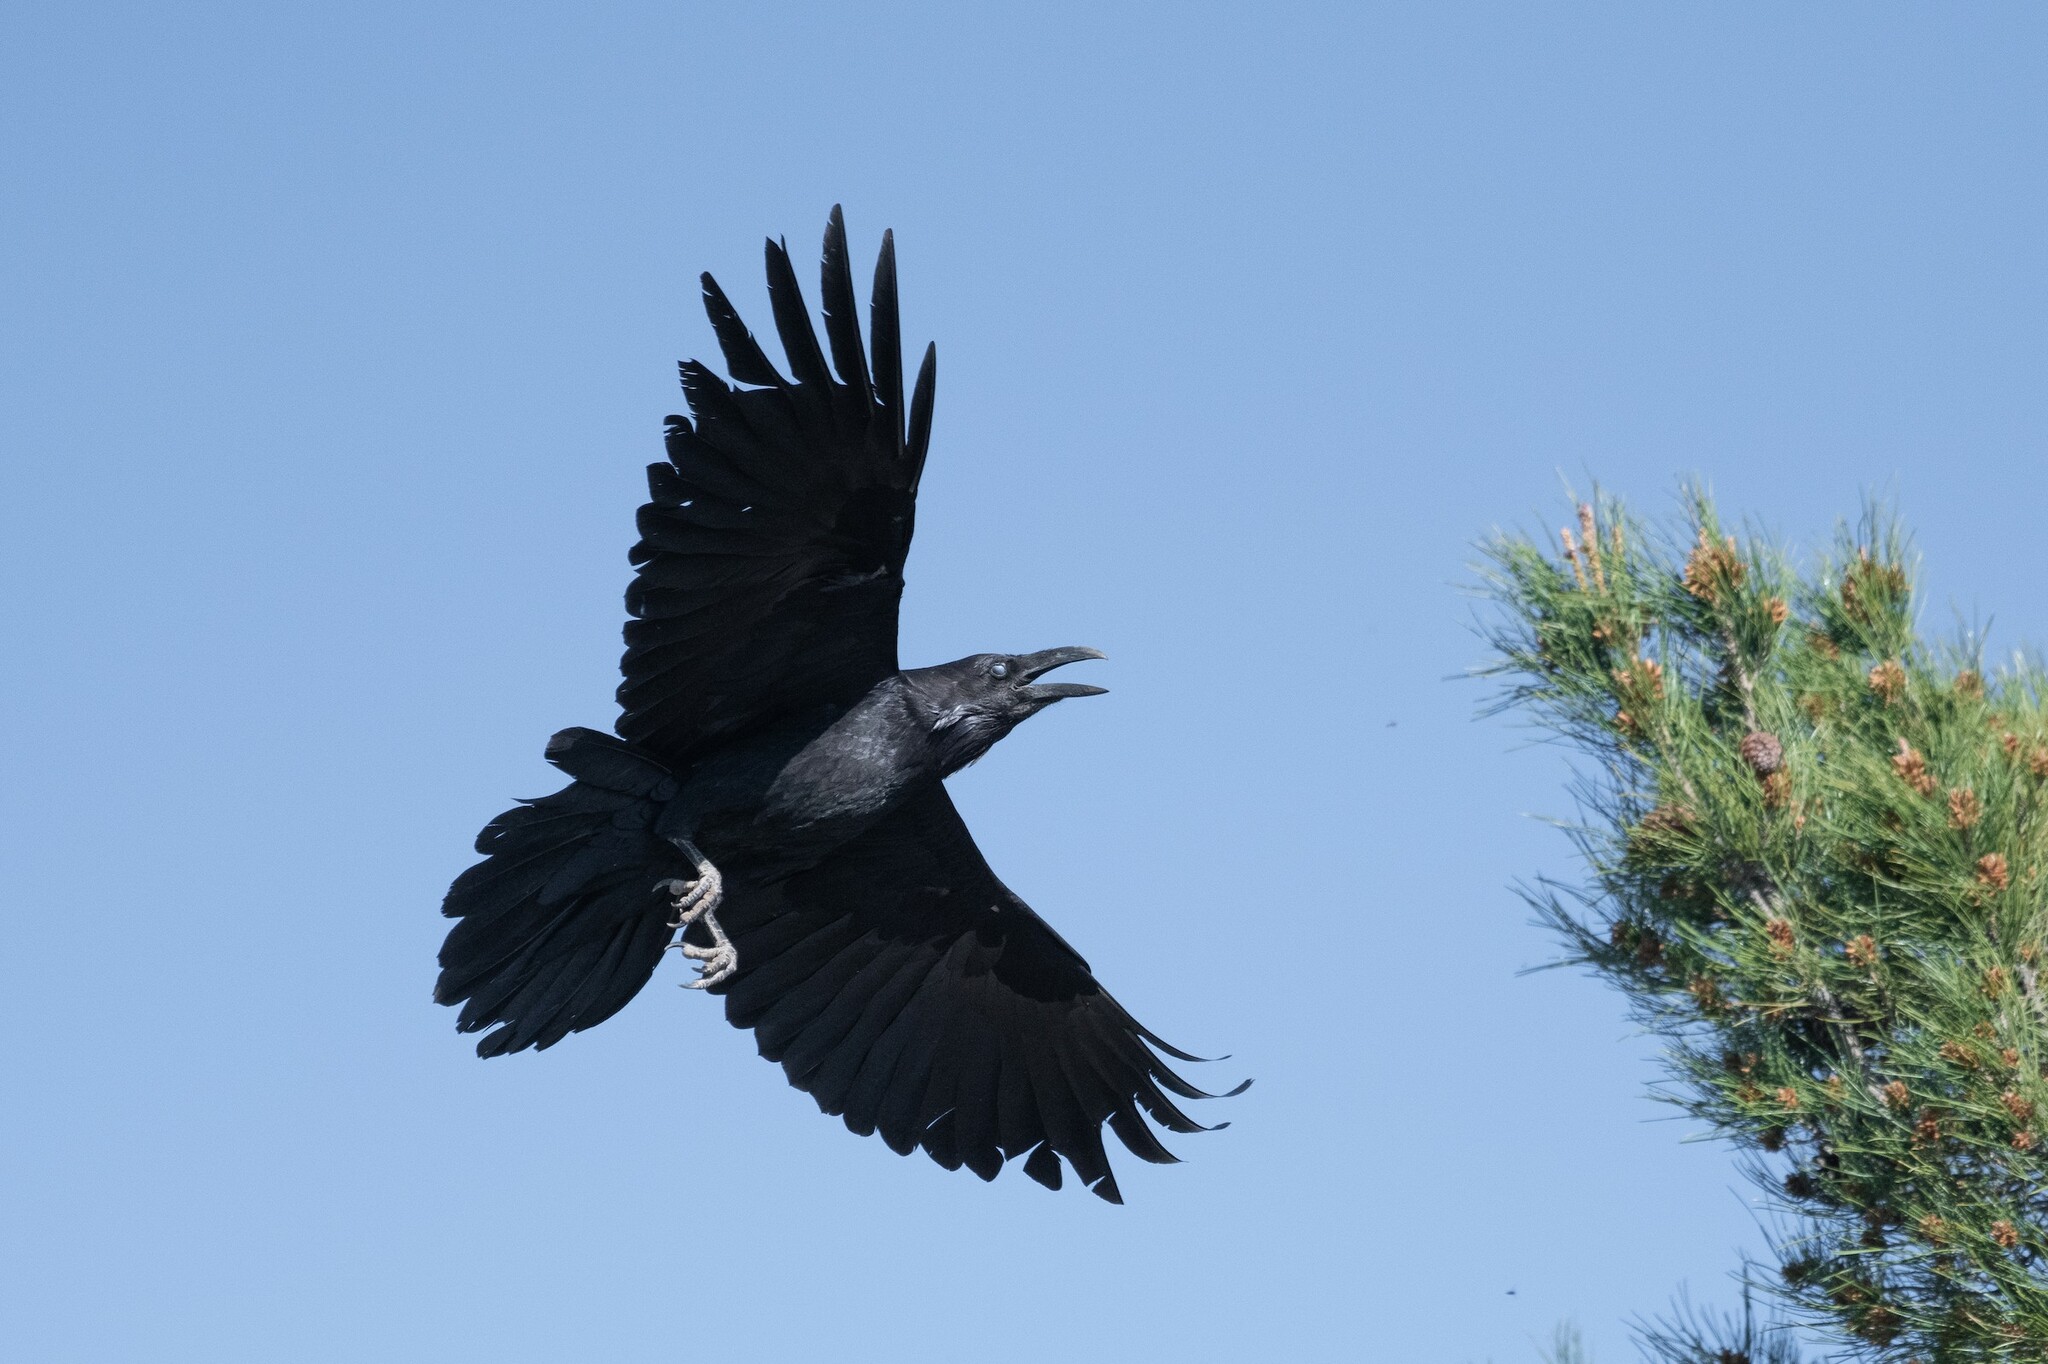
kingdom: Animalia
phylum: Chordata
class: Aves
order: Passeriformes
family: Corvidae
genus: Corvus
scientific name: Corvus cryptoleucus
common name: Chihuahuan raven
